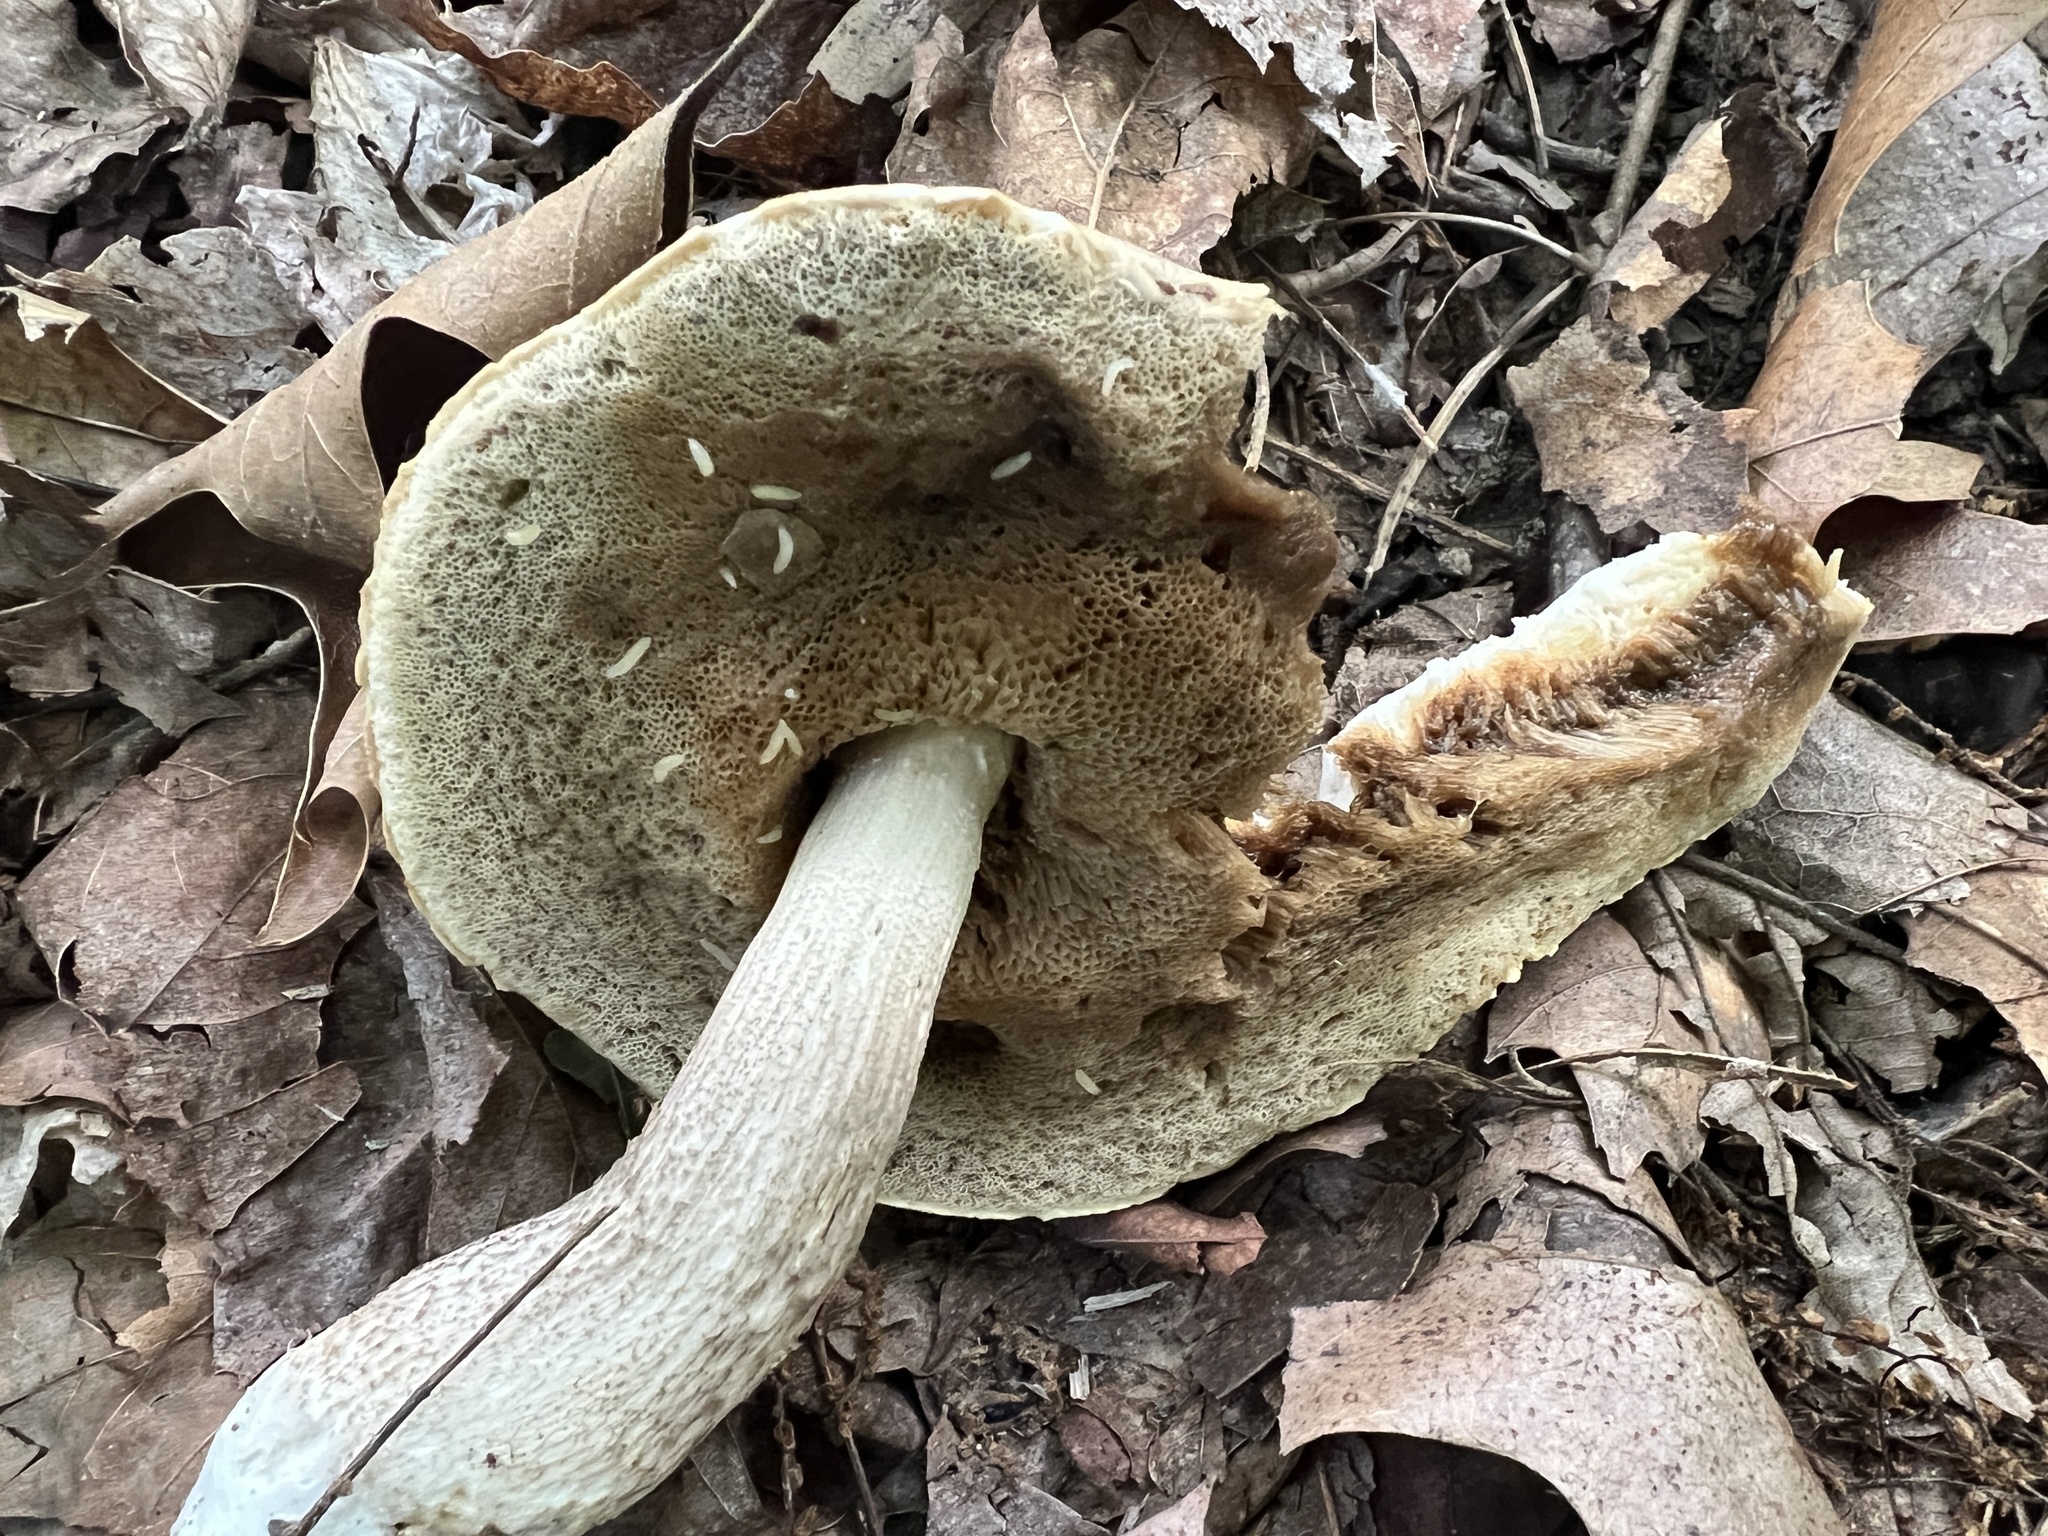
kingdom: Fungi
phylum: Basidiomycota
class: Agaricomycetes
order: Boletales
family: Boletaceae
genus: Leccinellum
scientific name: Leccinellum albellum
